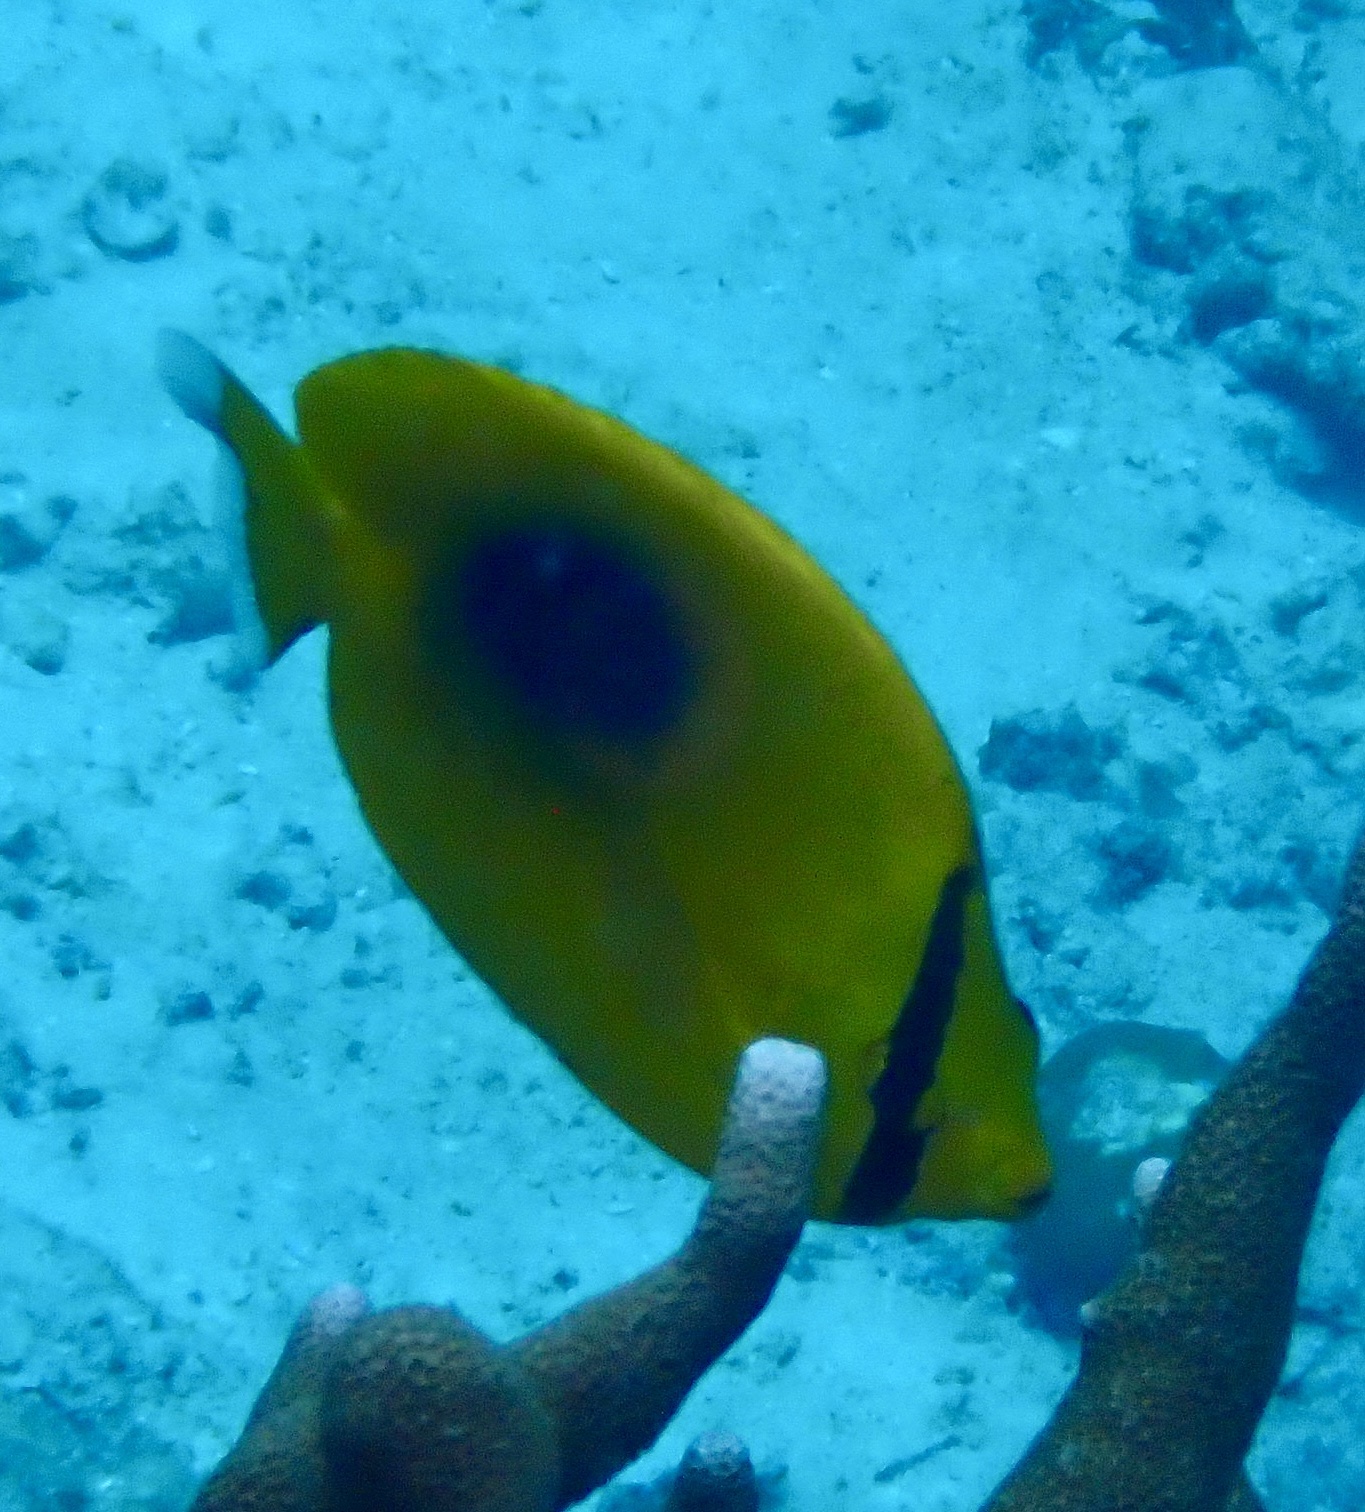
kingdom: Animalia
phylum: Chordata
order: Perciformes
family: Chaetodontidae
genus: Chaetodon
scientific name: Chaetodon speculum
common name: Mirror butterflyfish
